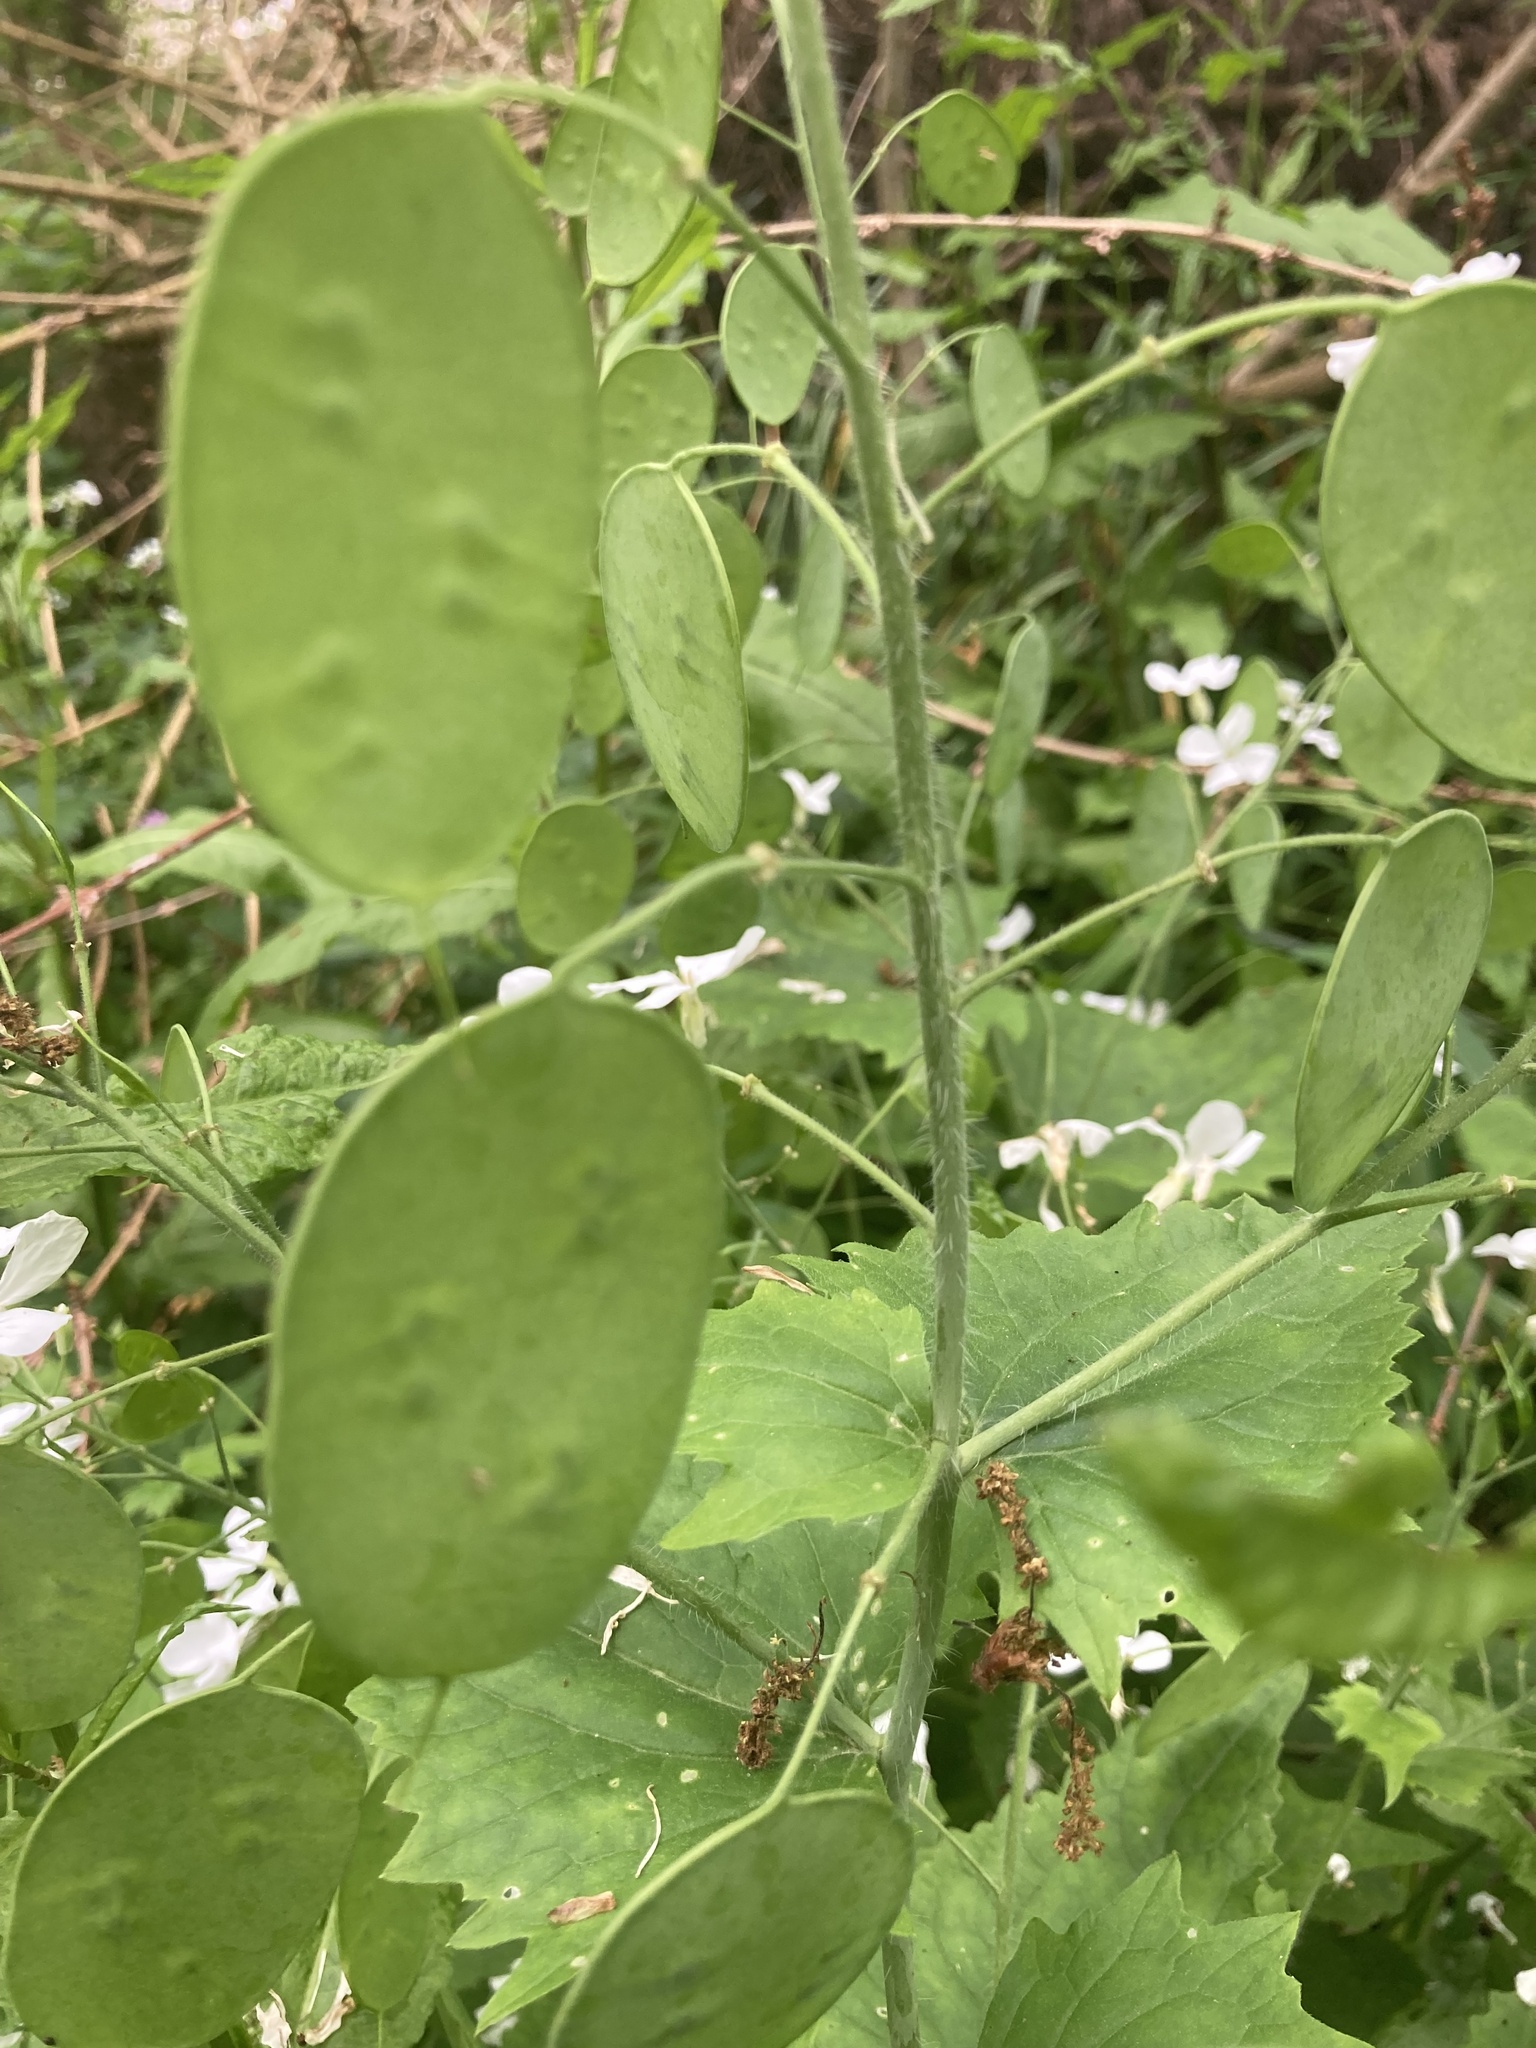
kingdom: Plantae
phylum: Tracheophyta
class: Magnoliopsida
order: Brassicales
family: Brassicaceae
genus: Lunaria
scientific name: Lunaria annua
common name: Honesty
